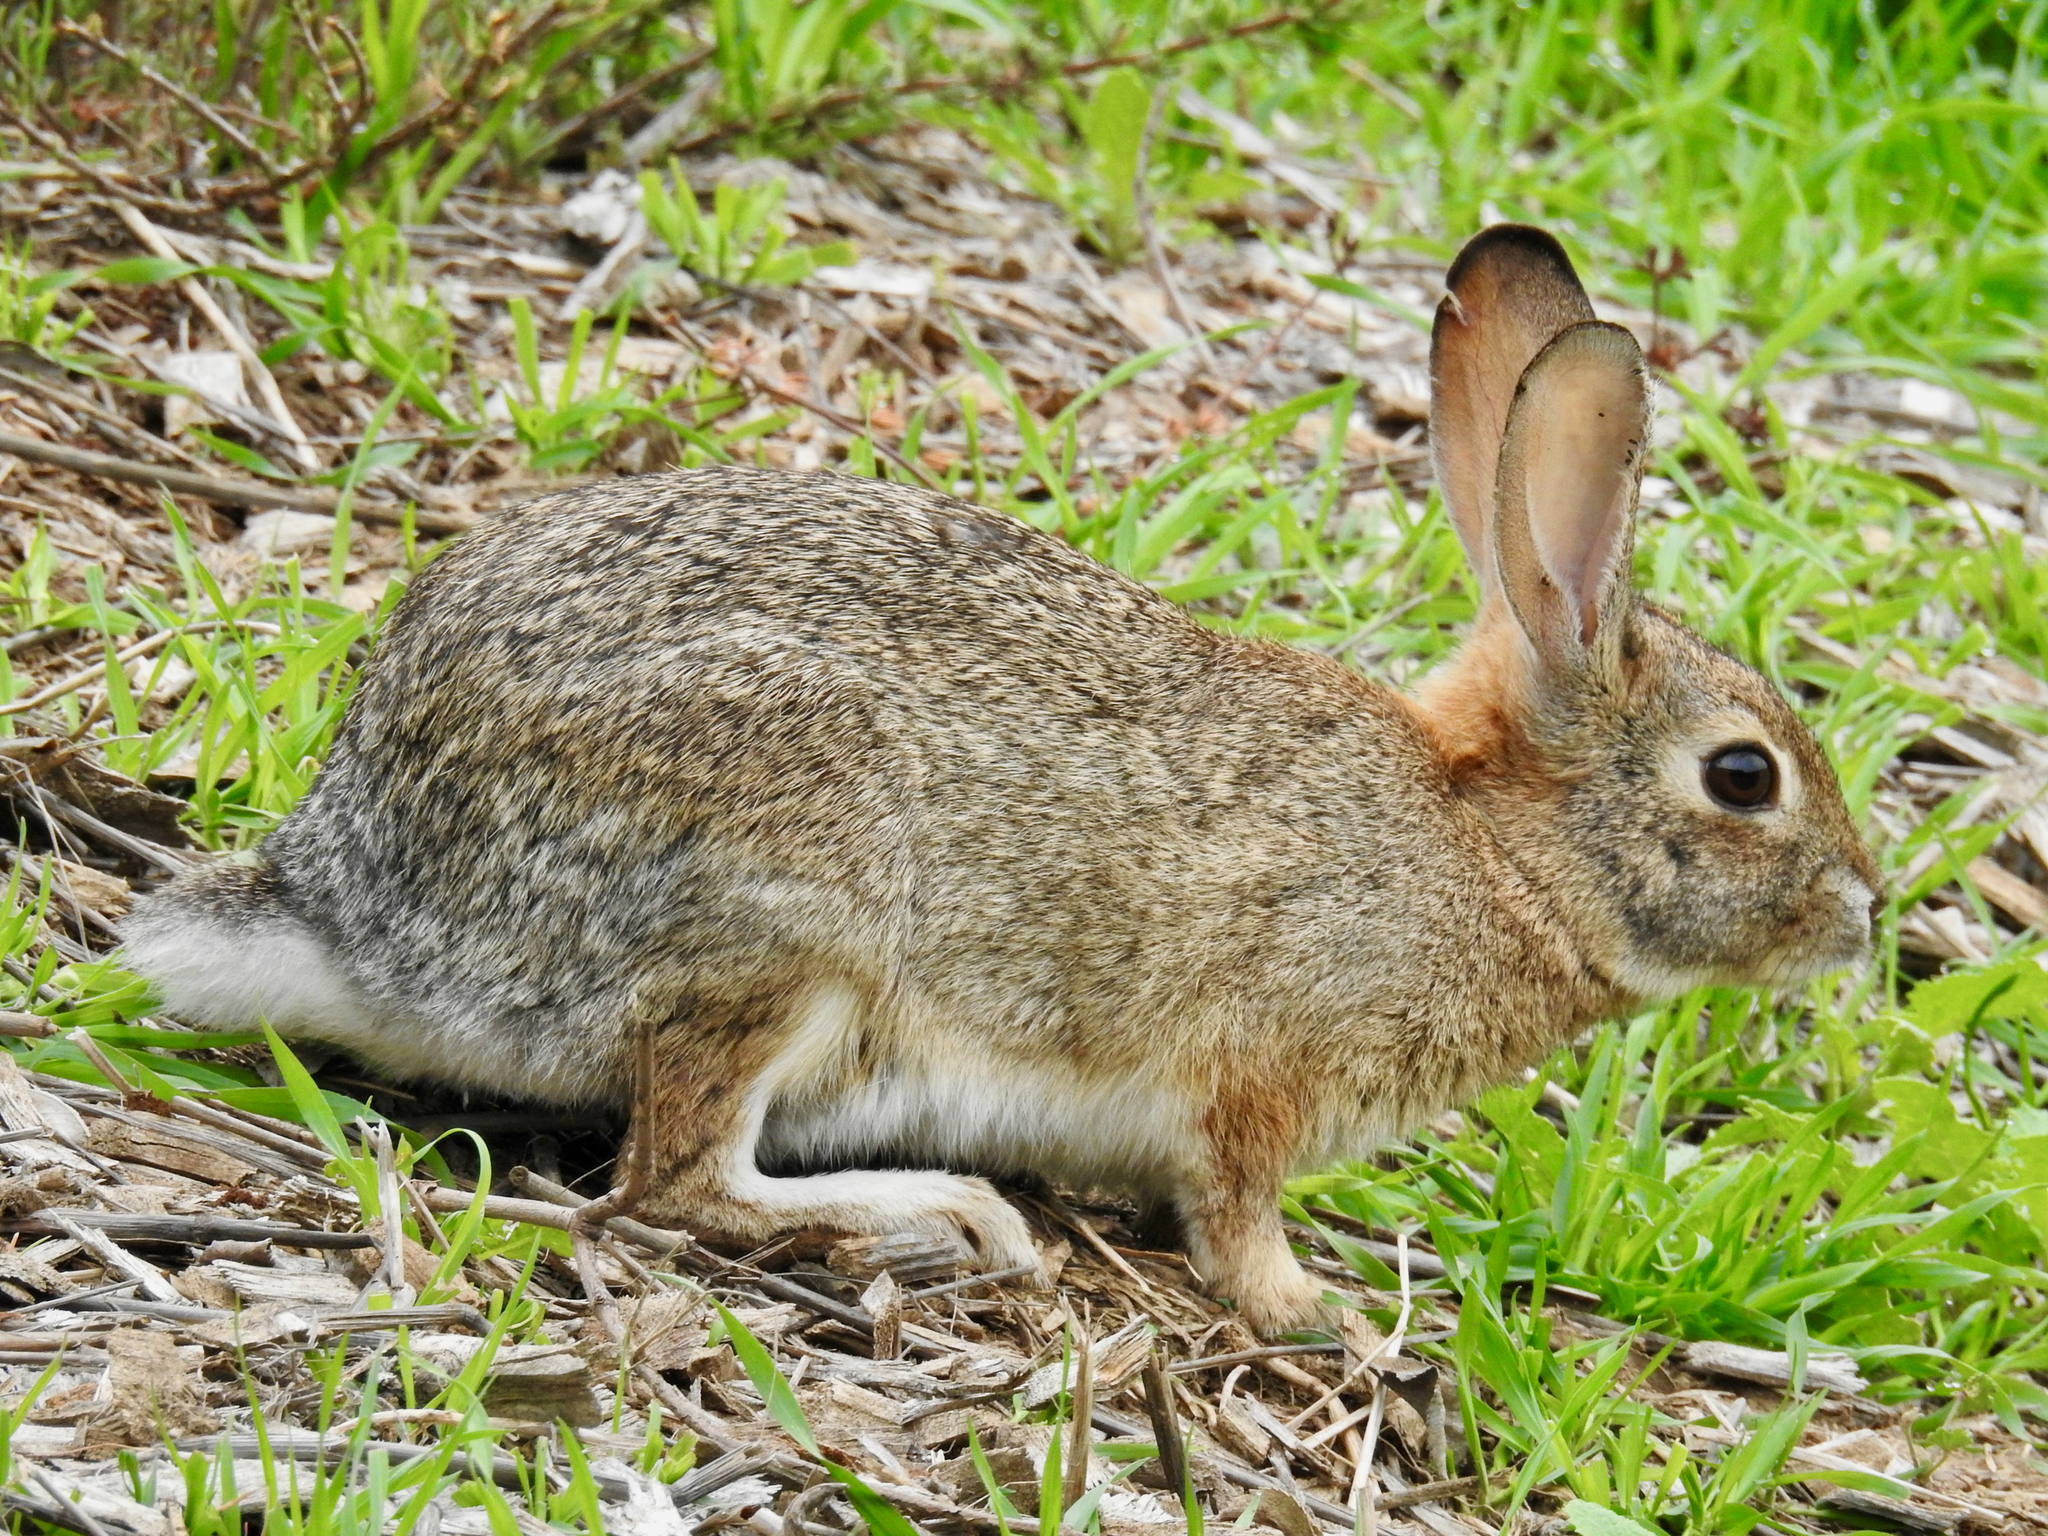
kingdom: Animalia
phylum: Chordata
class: Mammalia
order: Lagomorpha
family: Leporidae
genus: Sylvilagus
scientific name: Sylvilagus audubonii
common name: Desert cottontail
